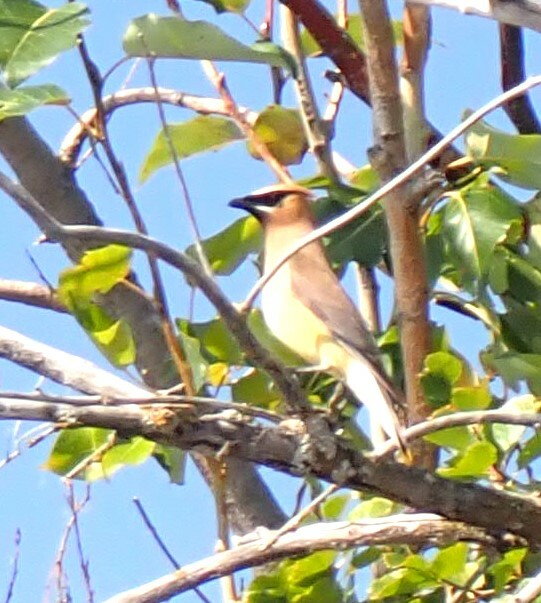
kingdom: Animalia
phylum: Chordata
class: Aves
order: Passeriformes
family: Bombycillidae
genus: Bombycilla
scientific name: Bombycilla cedrorum
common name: Cedar waxwing
